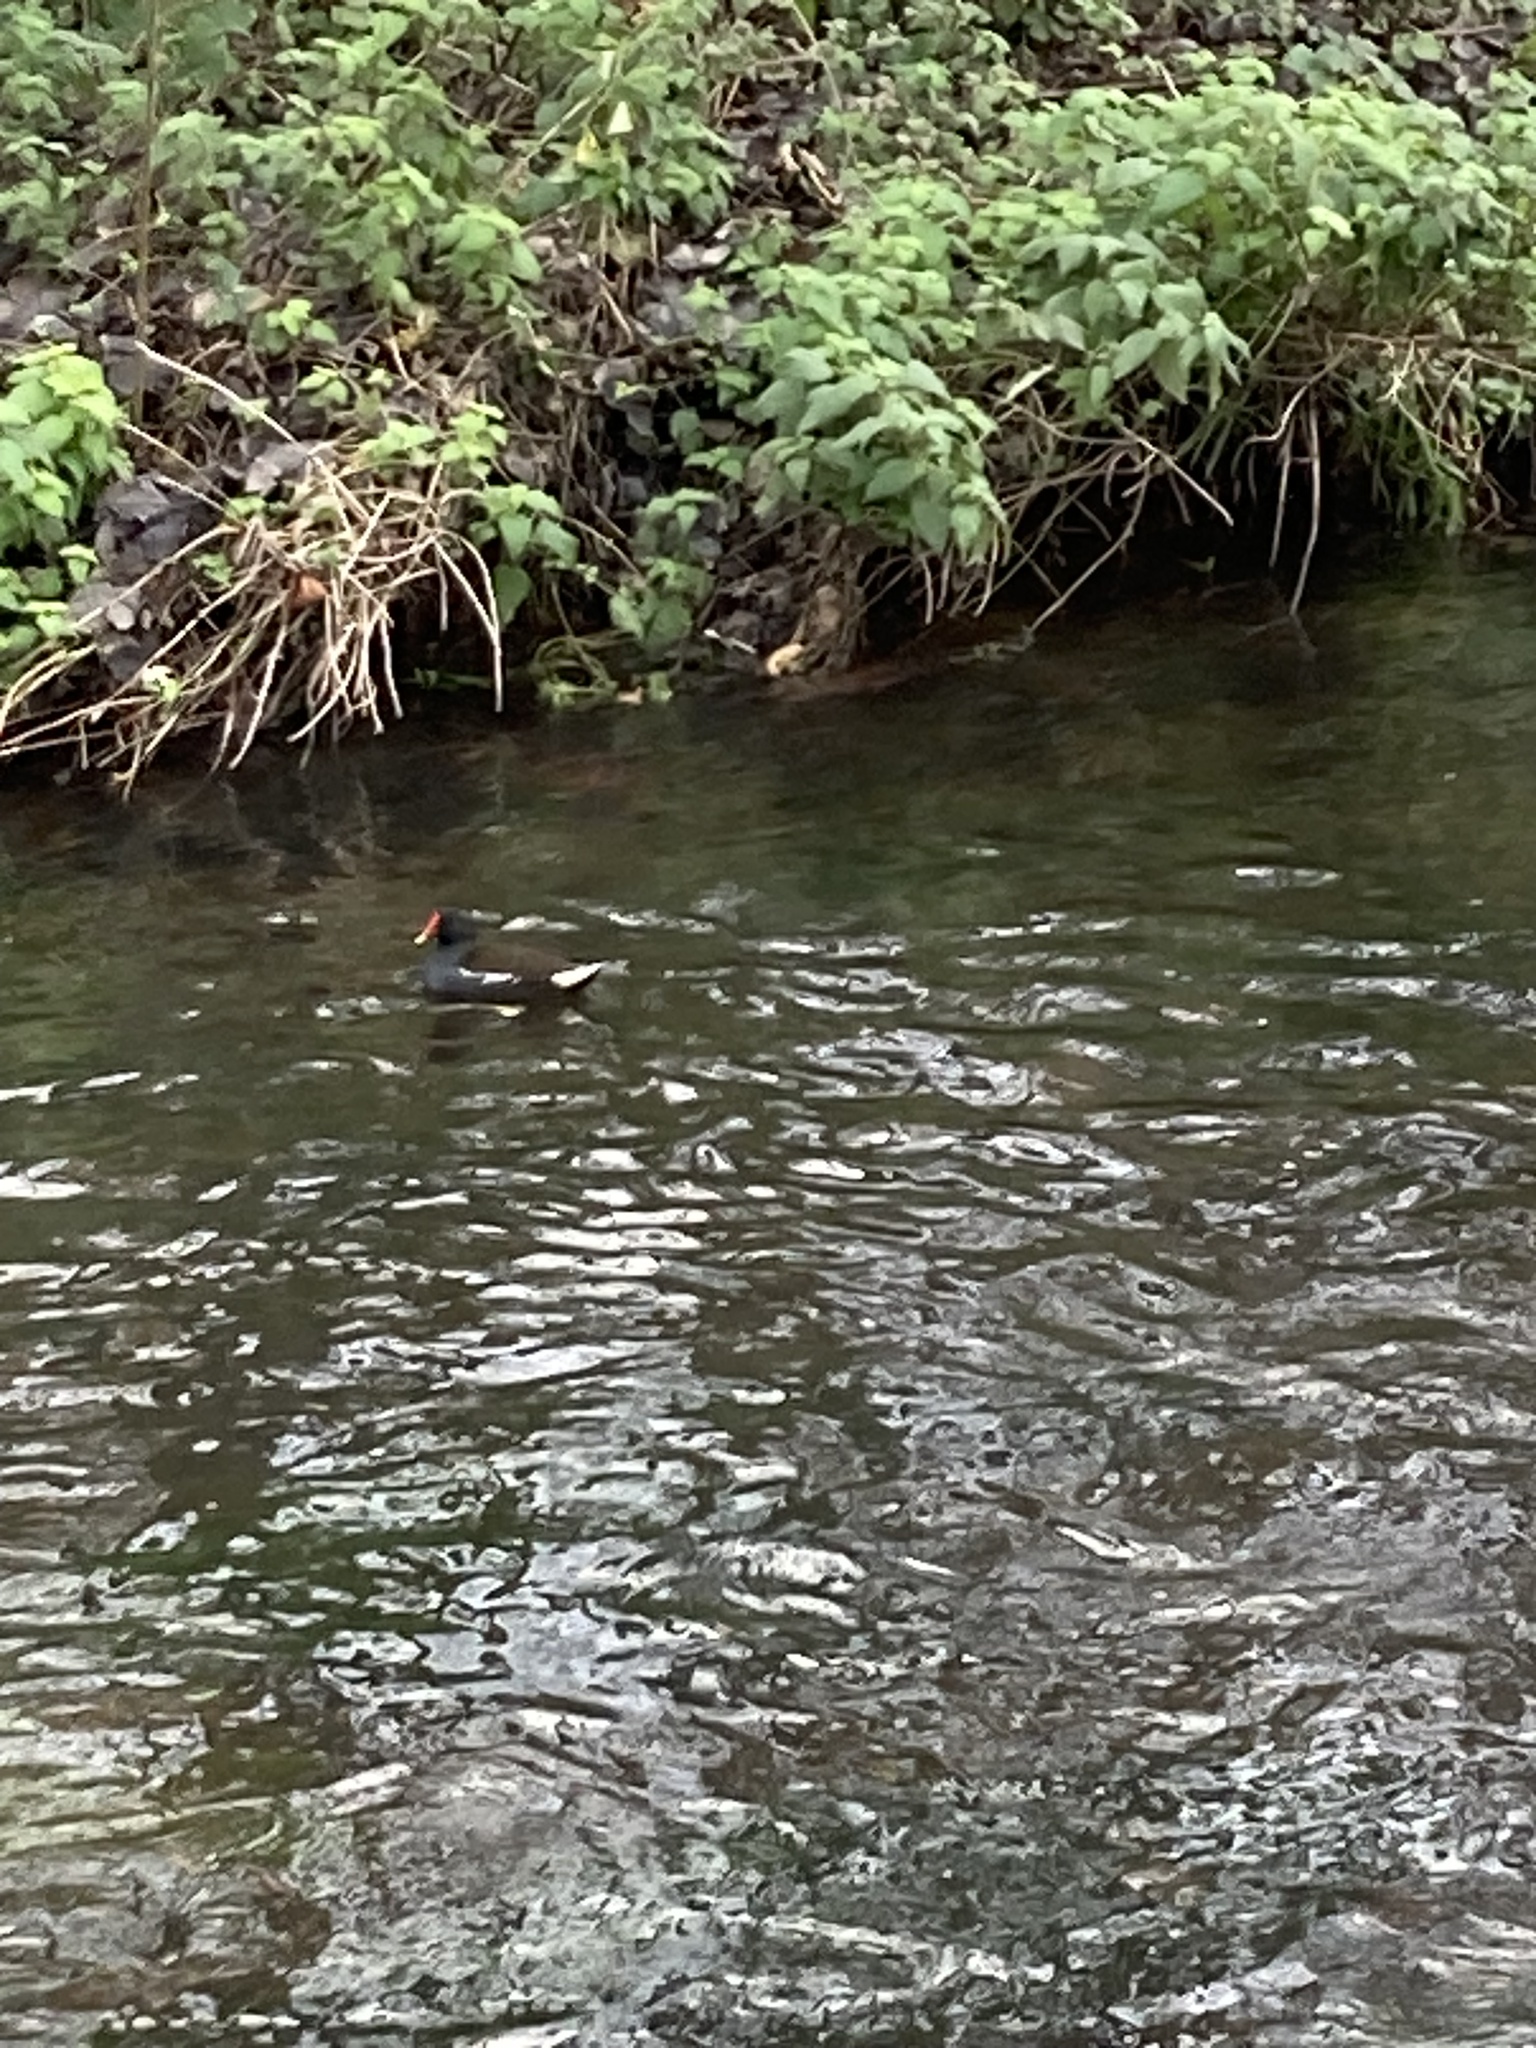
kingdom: Animalia
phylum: Chordata
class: Aves
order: Gruiformes
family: Rallidae
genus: Gallinula
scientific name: Gallinula chloropus
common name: Common moorhen
